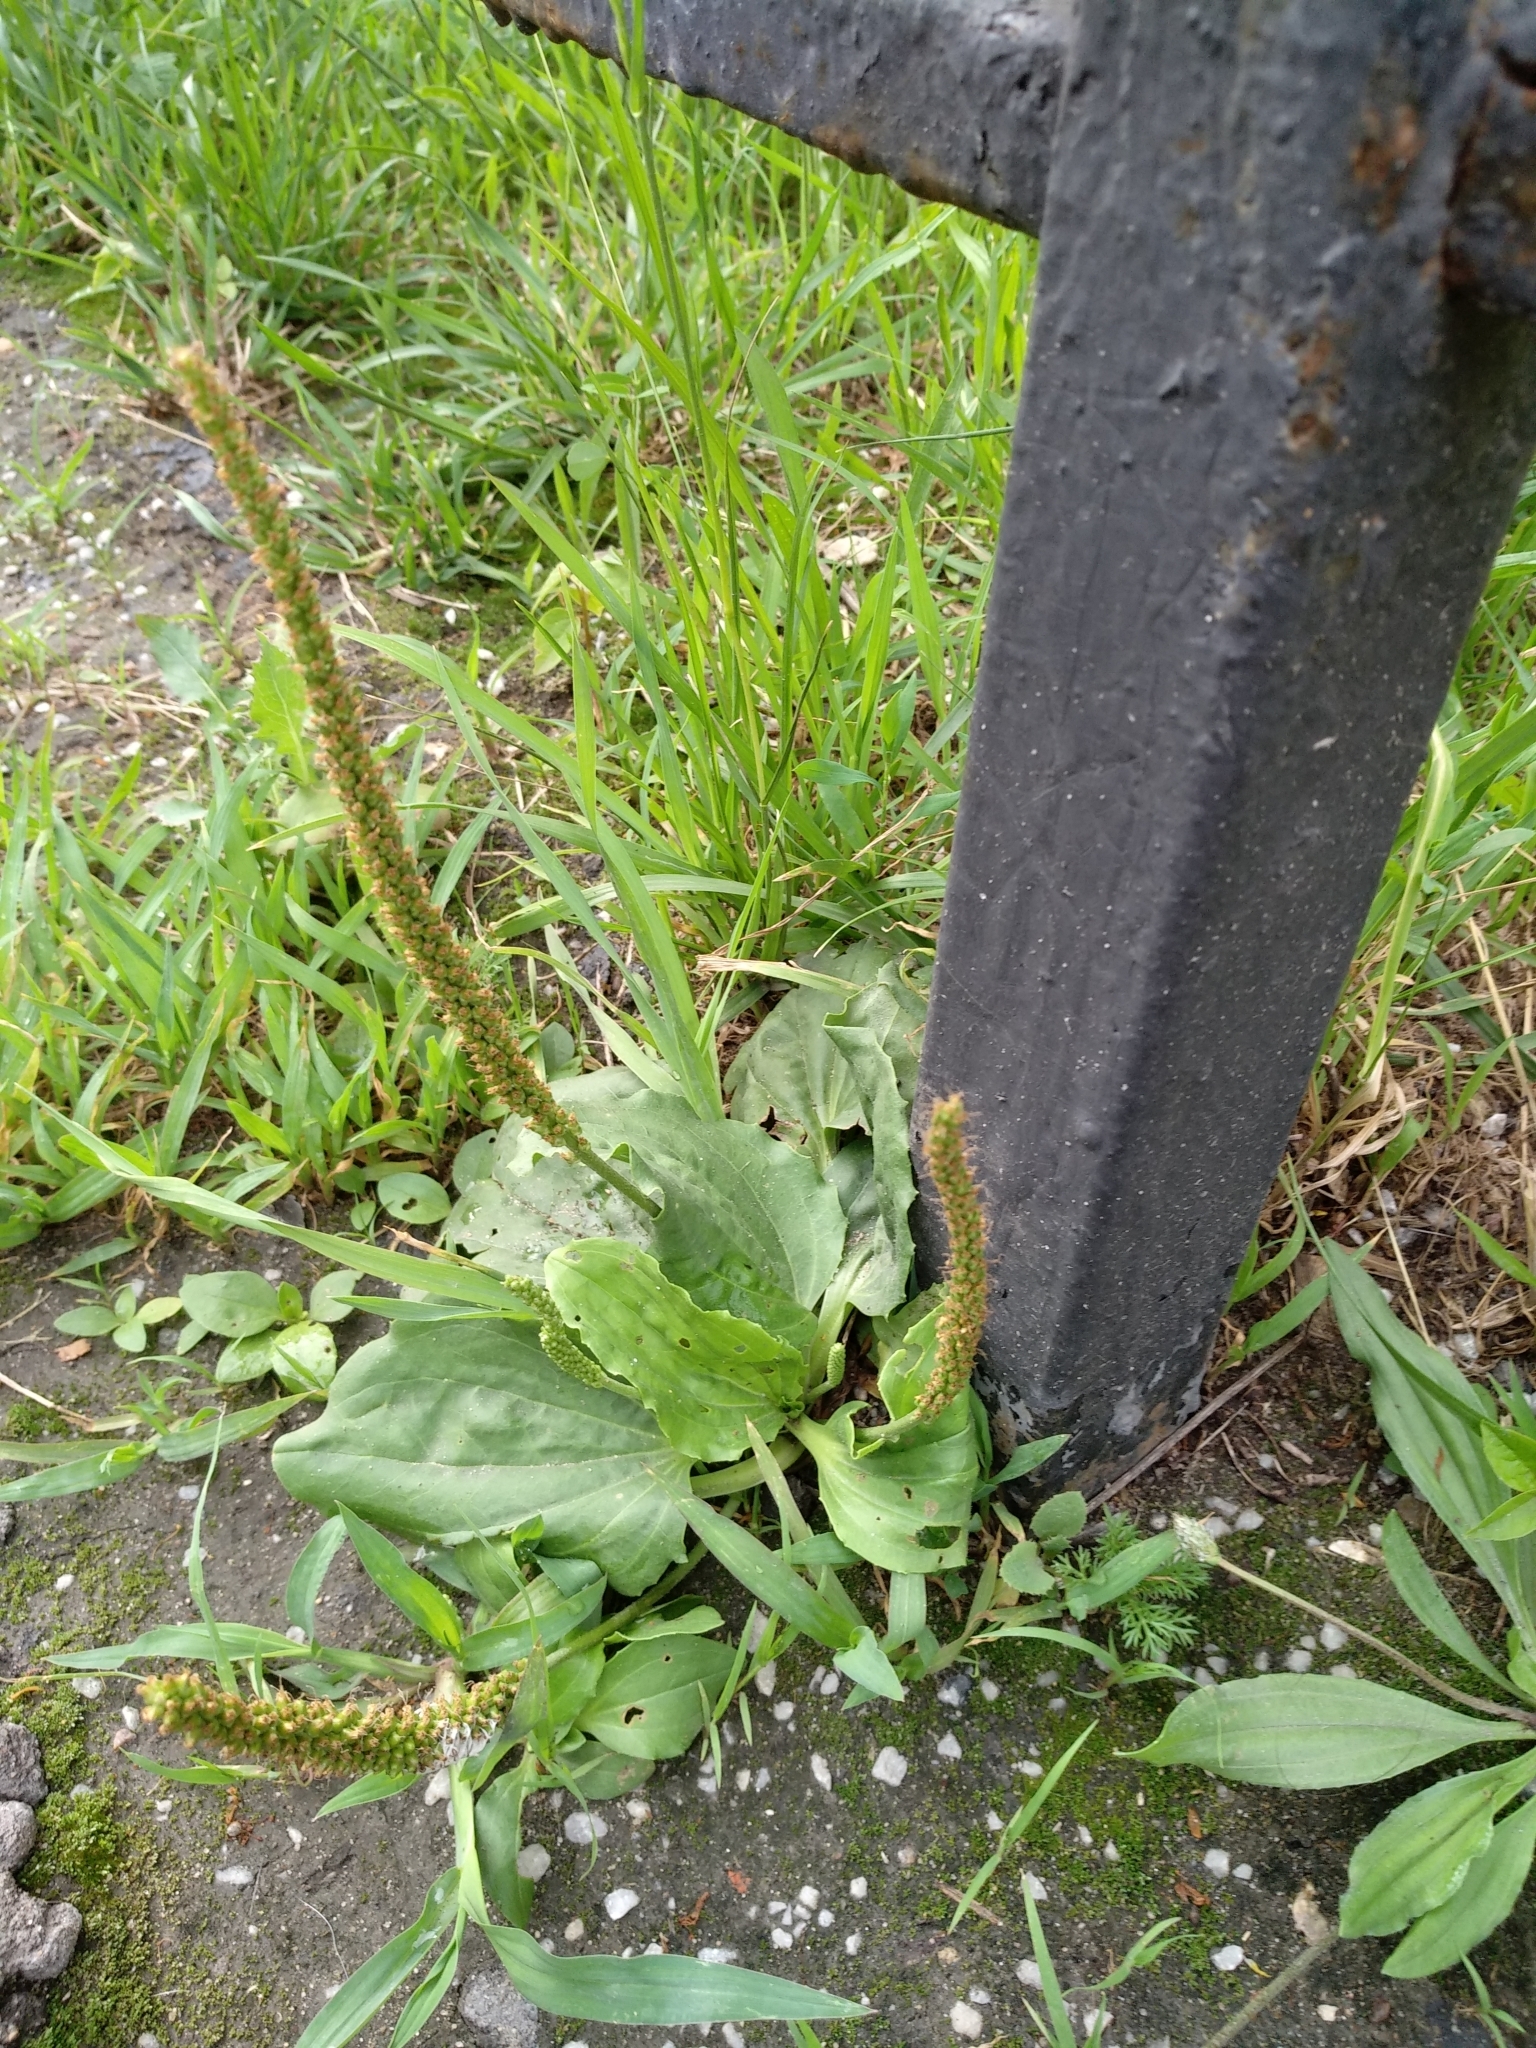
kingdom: Plantae
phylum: Tracheophyta
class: Magnoliopsida
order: Lamiales
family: Plantaginaceae
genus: Plantago
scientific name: Plantago major
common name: Common plantain
